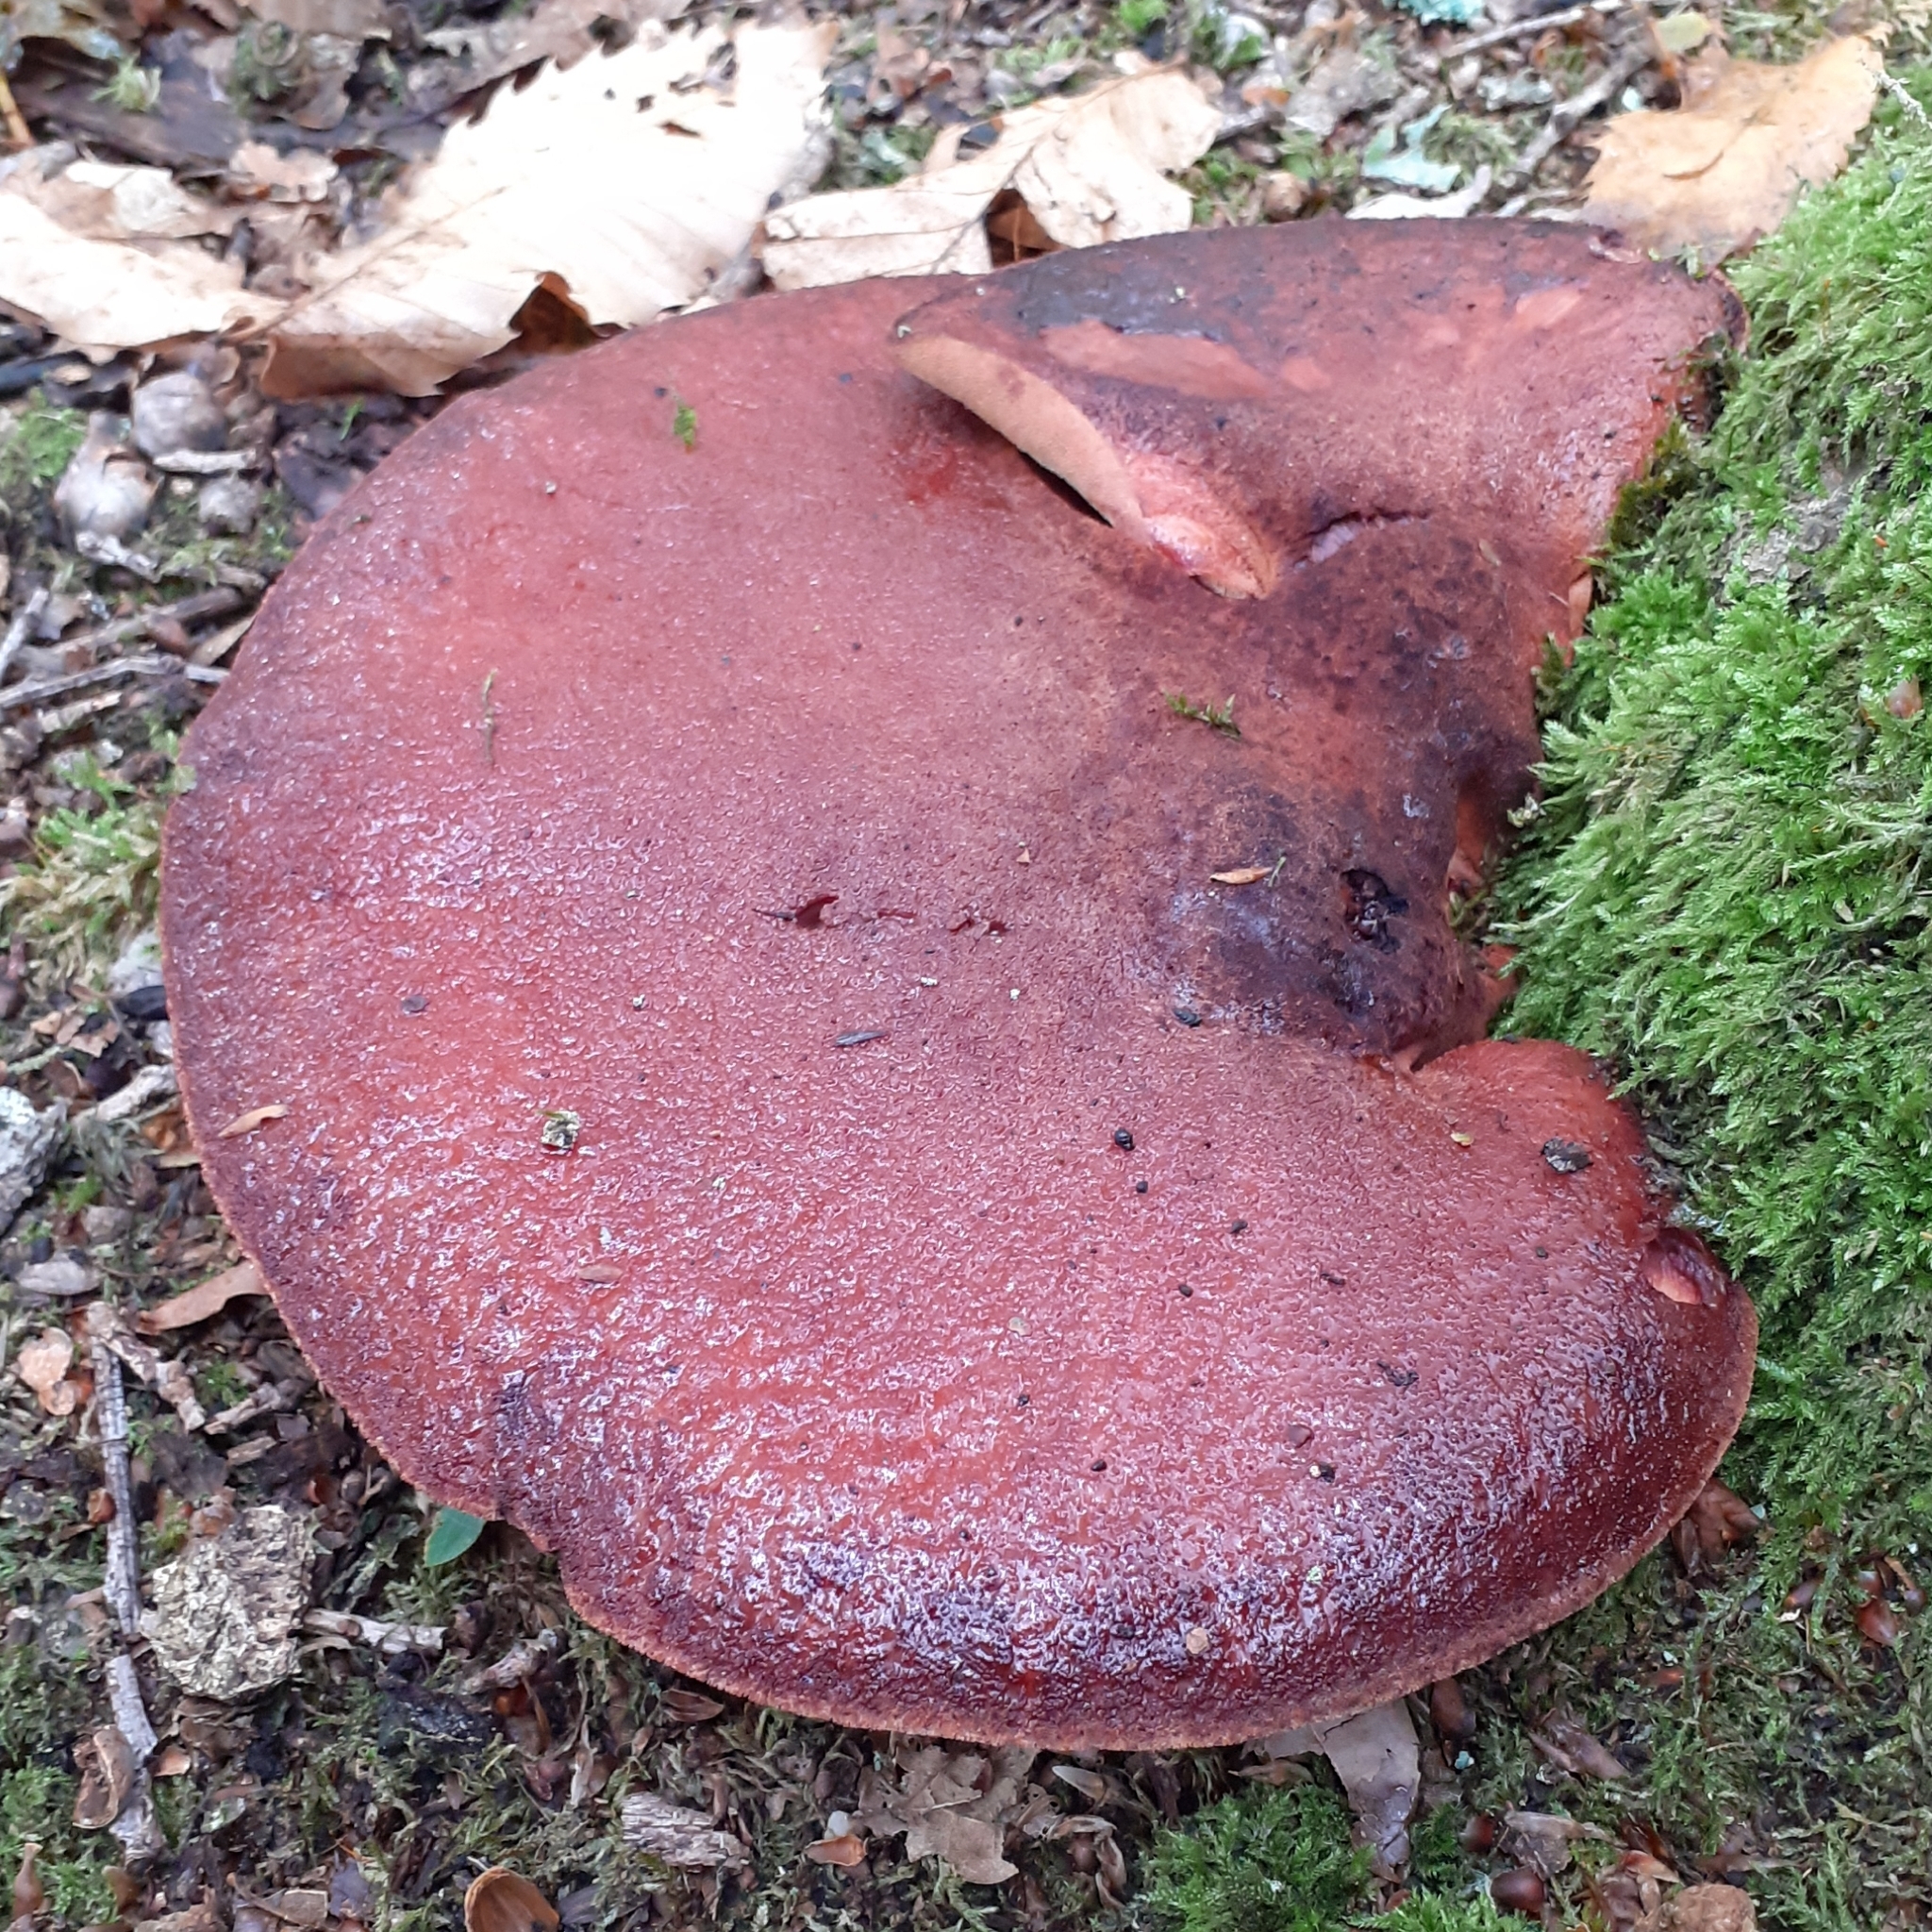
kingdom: Fungi
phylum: Basidiomycota
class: Agaricomycetes
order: Agaricales
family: Fistulinaceae
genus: Fistulina
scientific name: Fistulina hepatica
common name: Beef-steak fungus
